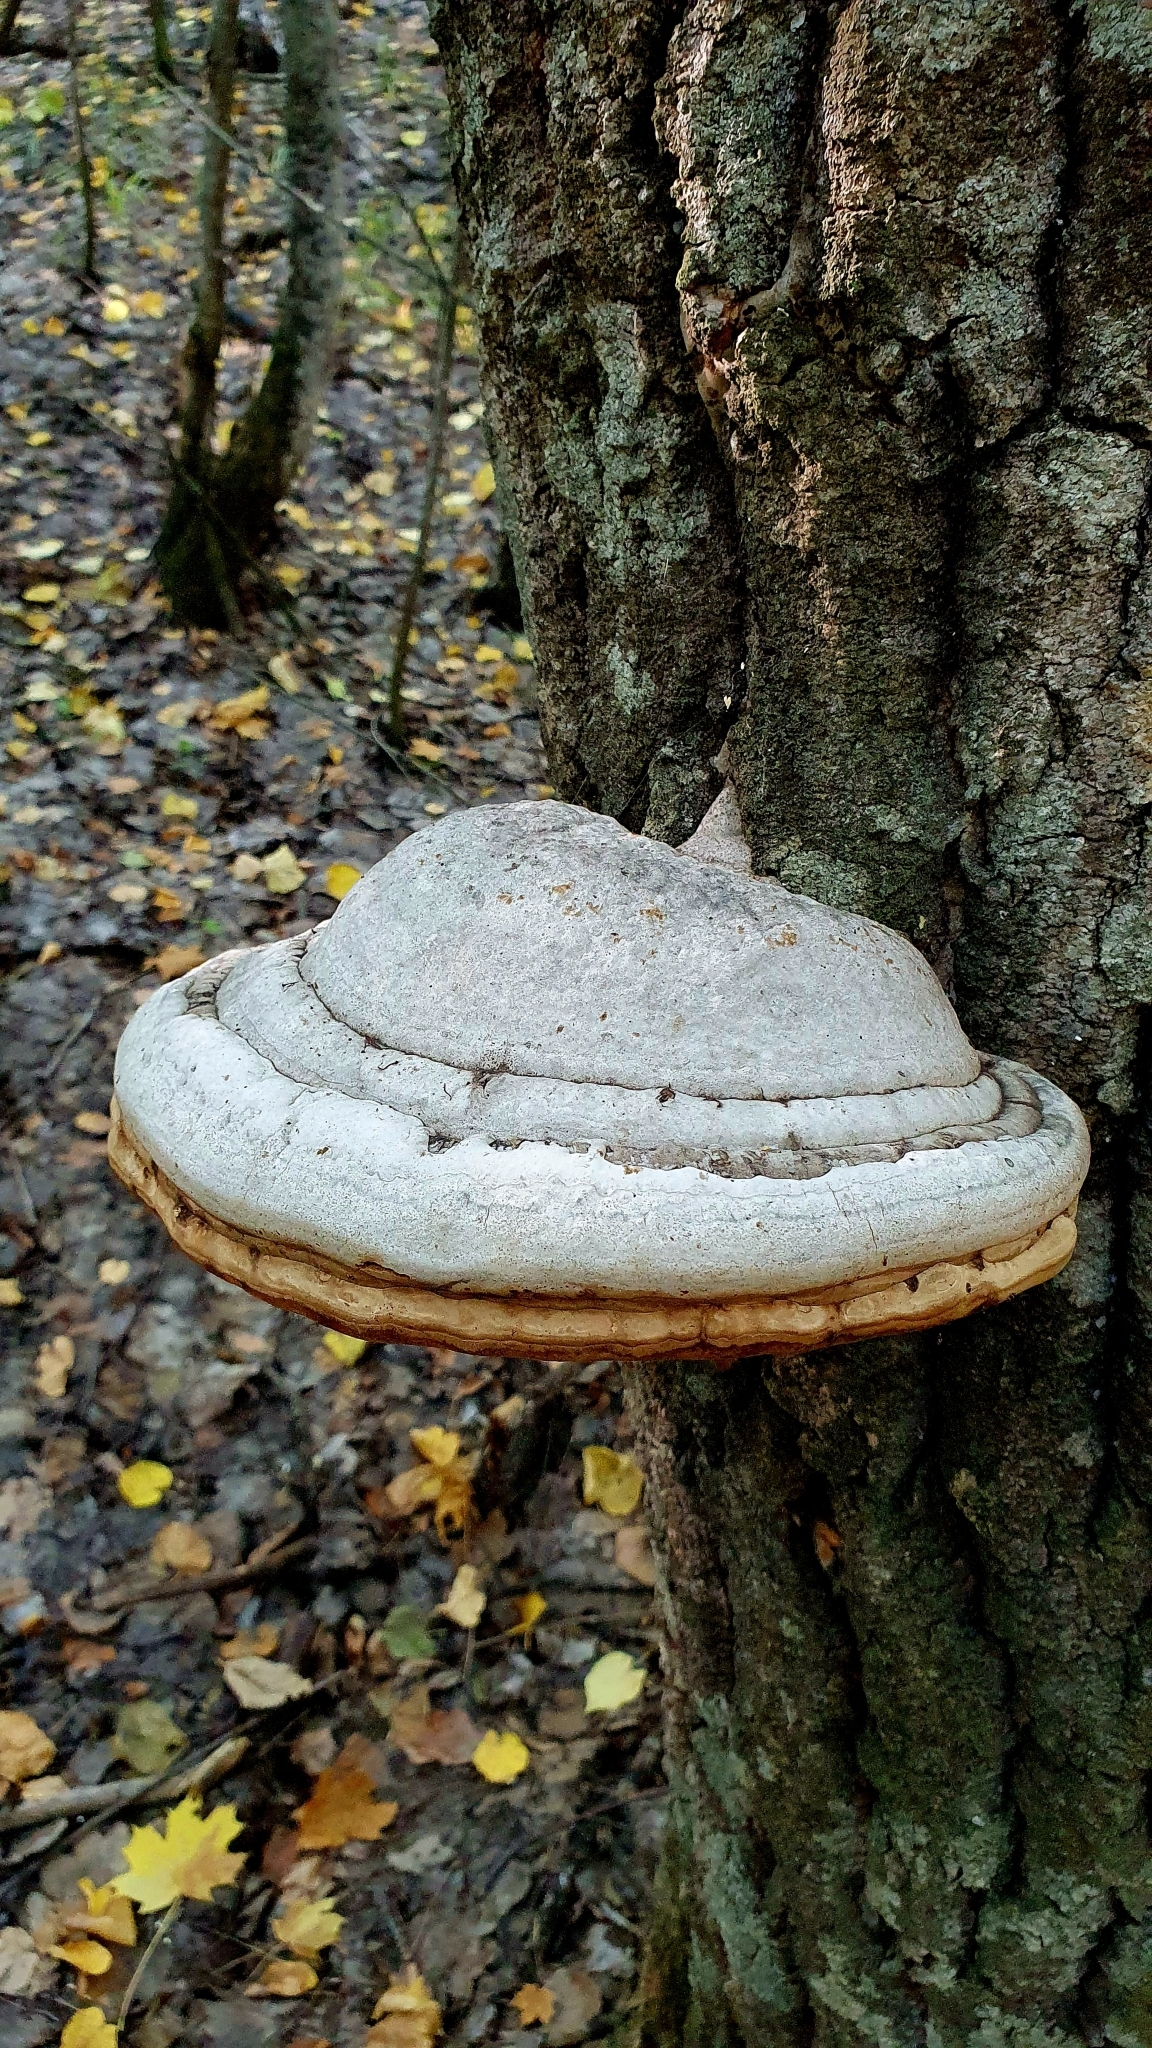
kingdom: Fungi
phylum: Basidiomycota
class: Agaricomycetes
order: Polyporales
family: Polyporaceae
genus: Fomes
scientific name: Fomes fomentarius
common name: Hoof fungus
